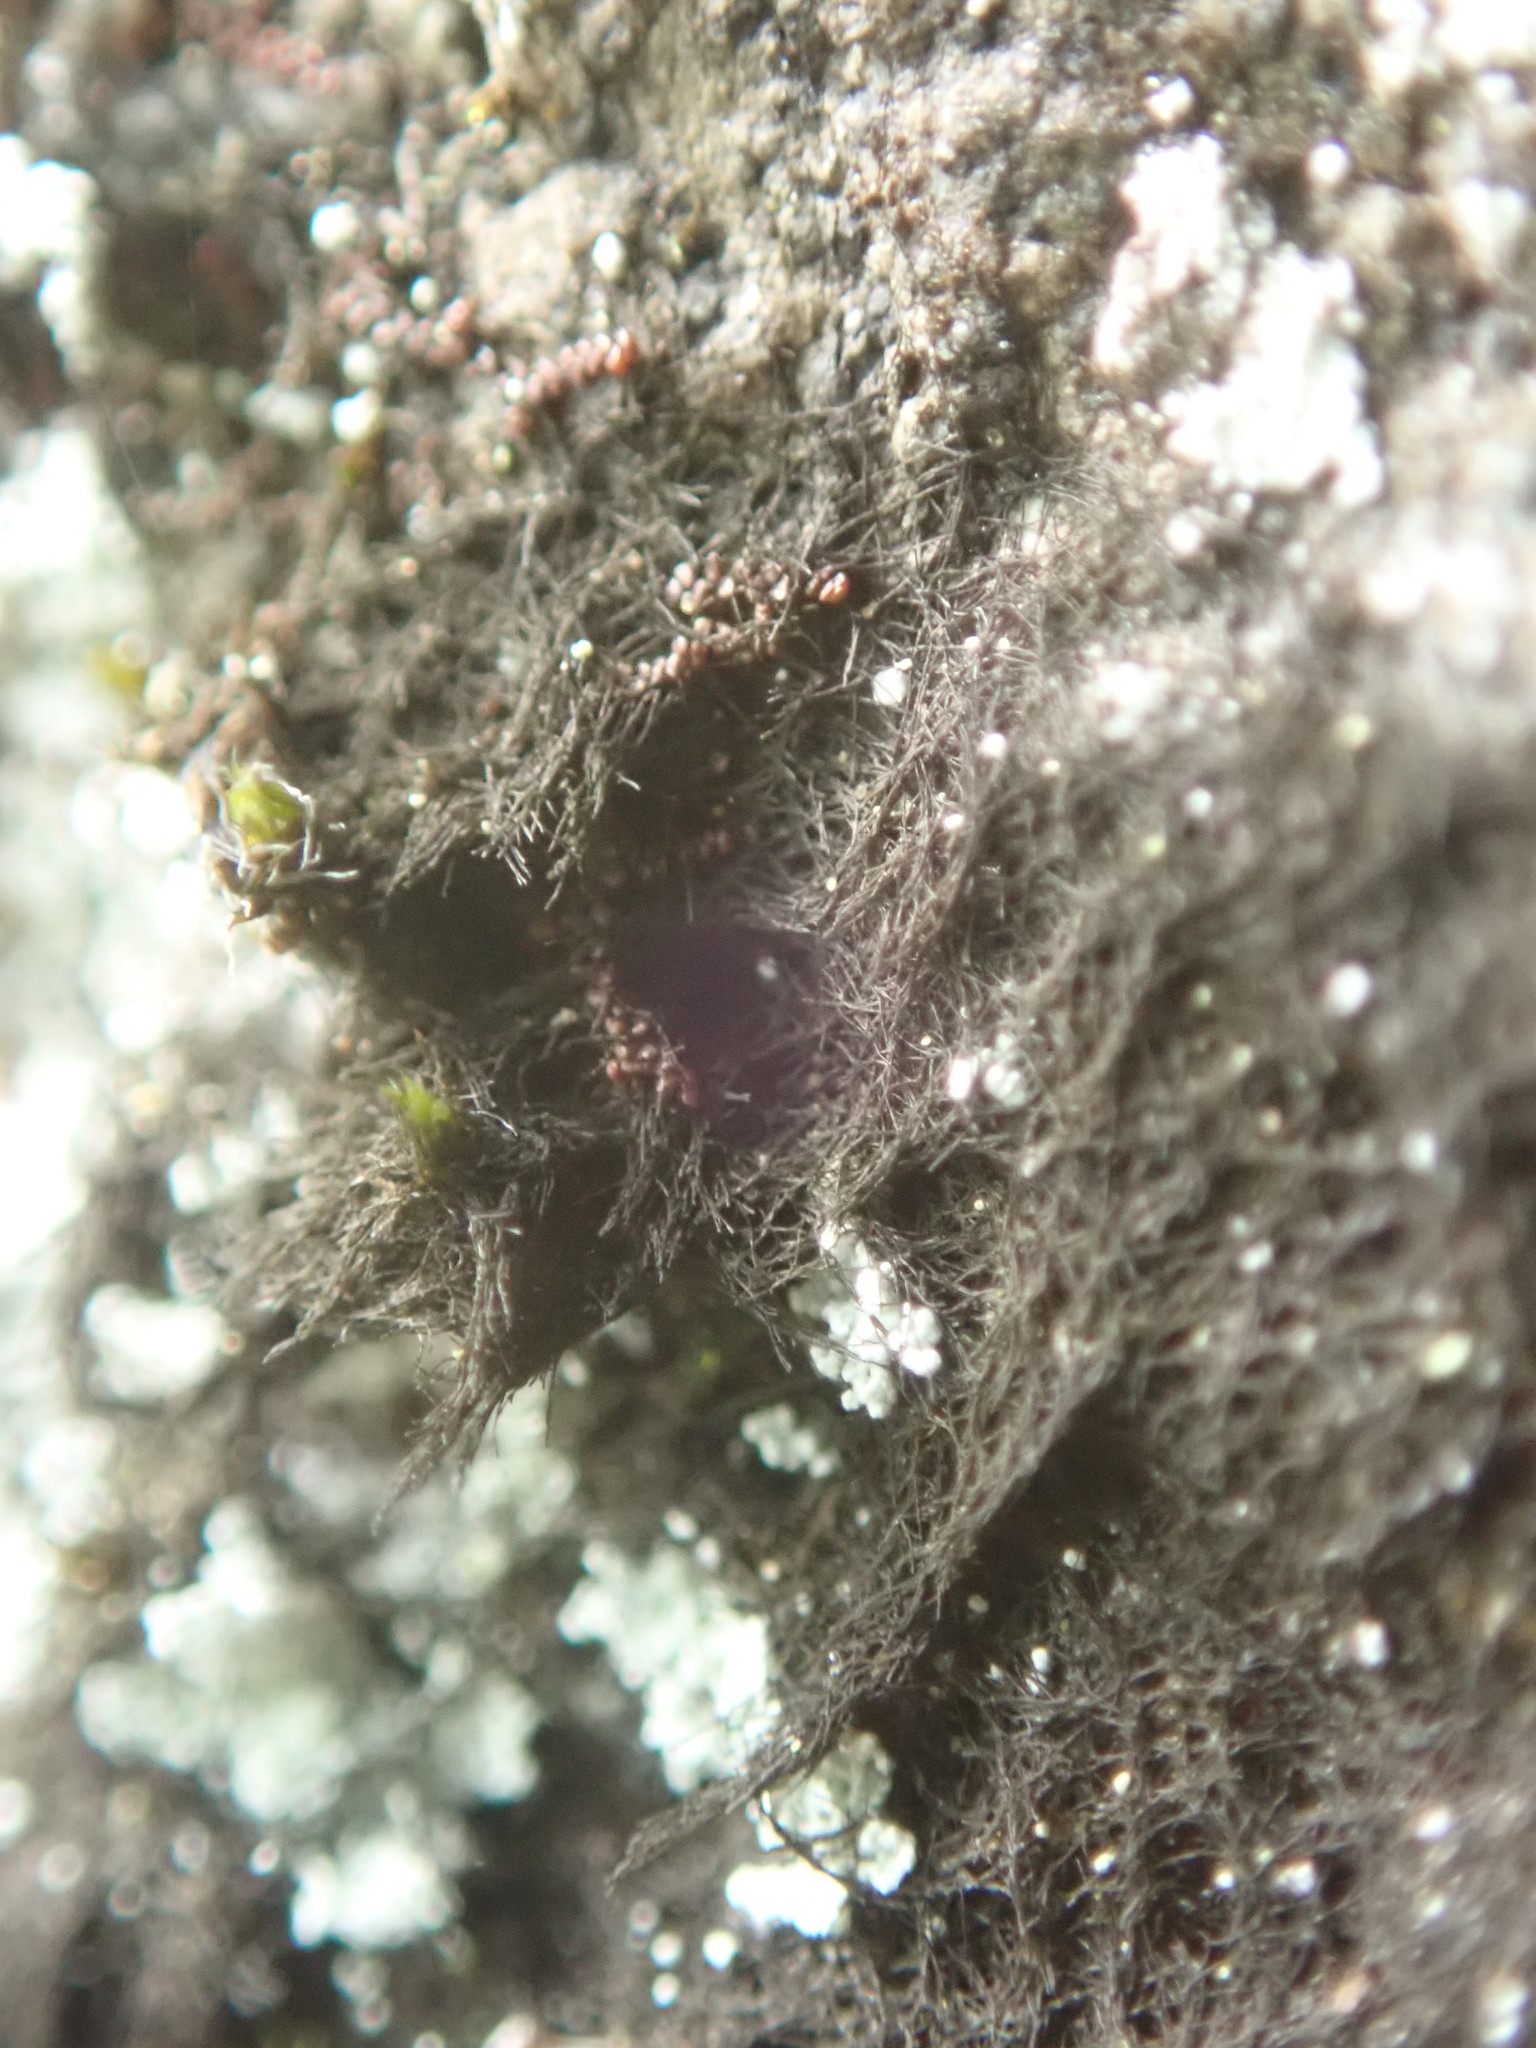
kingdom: Plantae
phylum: Marchantiophyta
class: Jungermanniopsida
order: Porellales
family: Frullaniaceae
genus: Frullania
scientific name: Frullania nisquallensis
